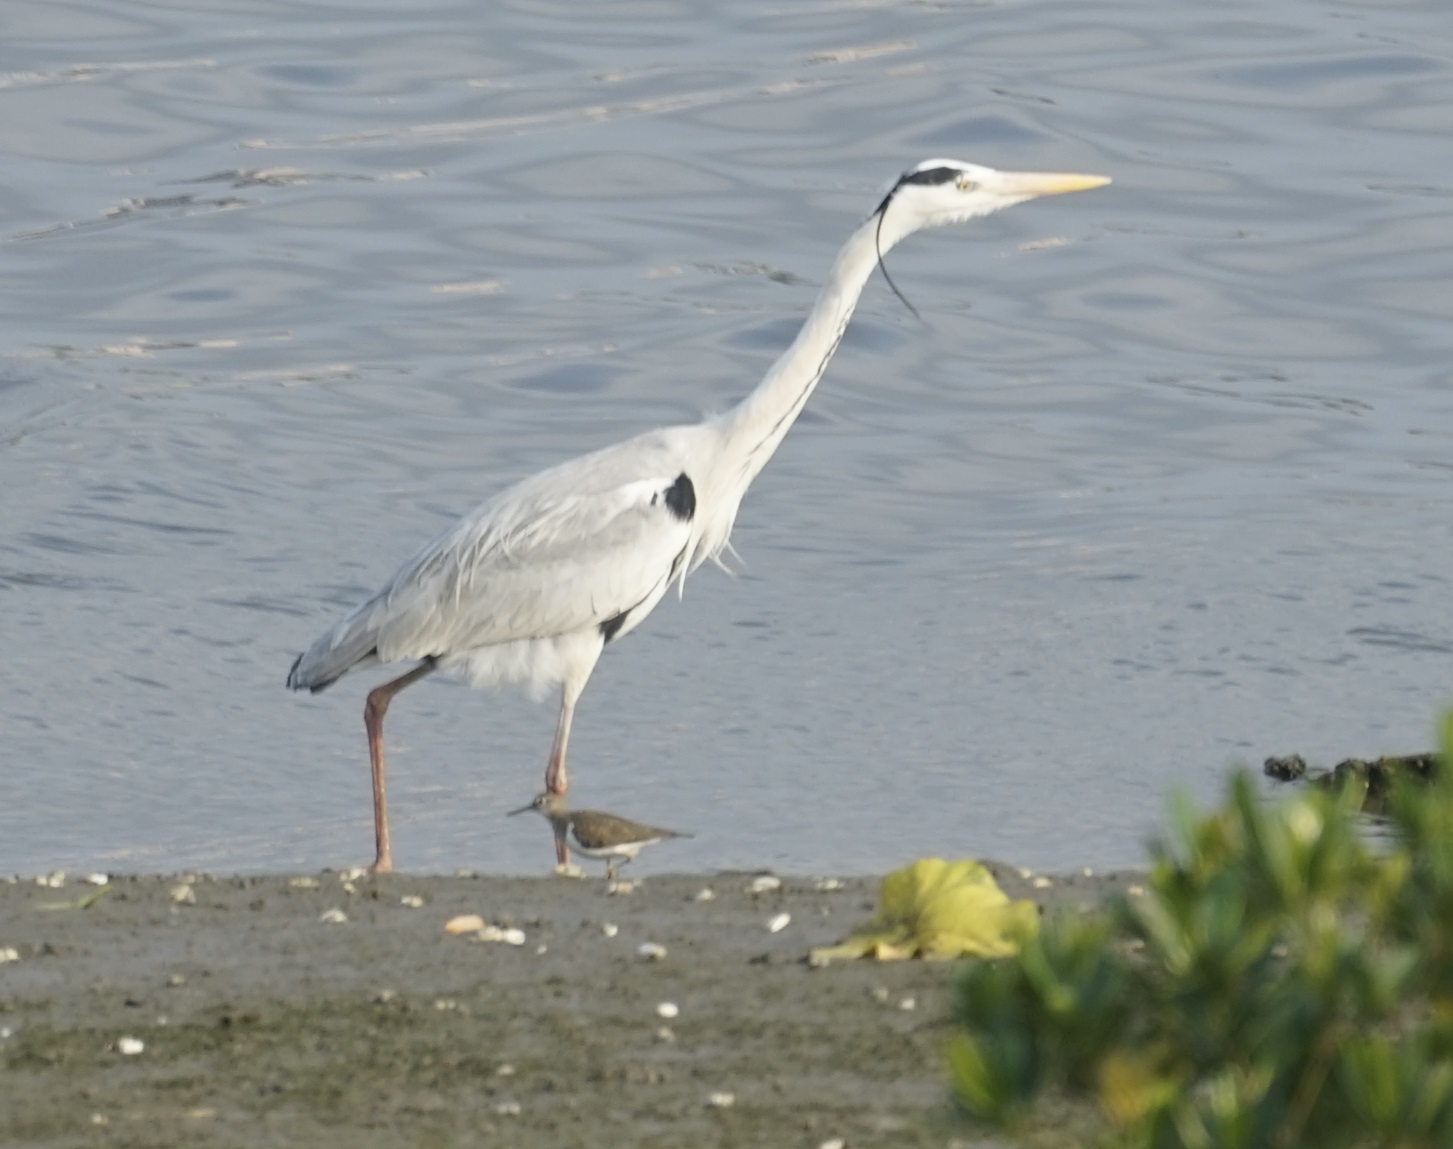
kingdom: Animalia
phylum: Chordata
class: Aves
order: Pelecaniformes
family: Ardeidae
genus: Ardea
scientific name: Ardea cinerea
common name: Grey heron
